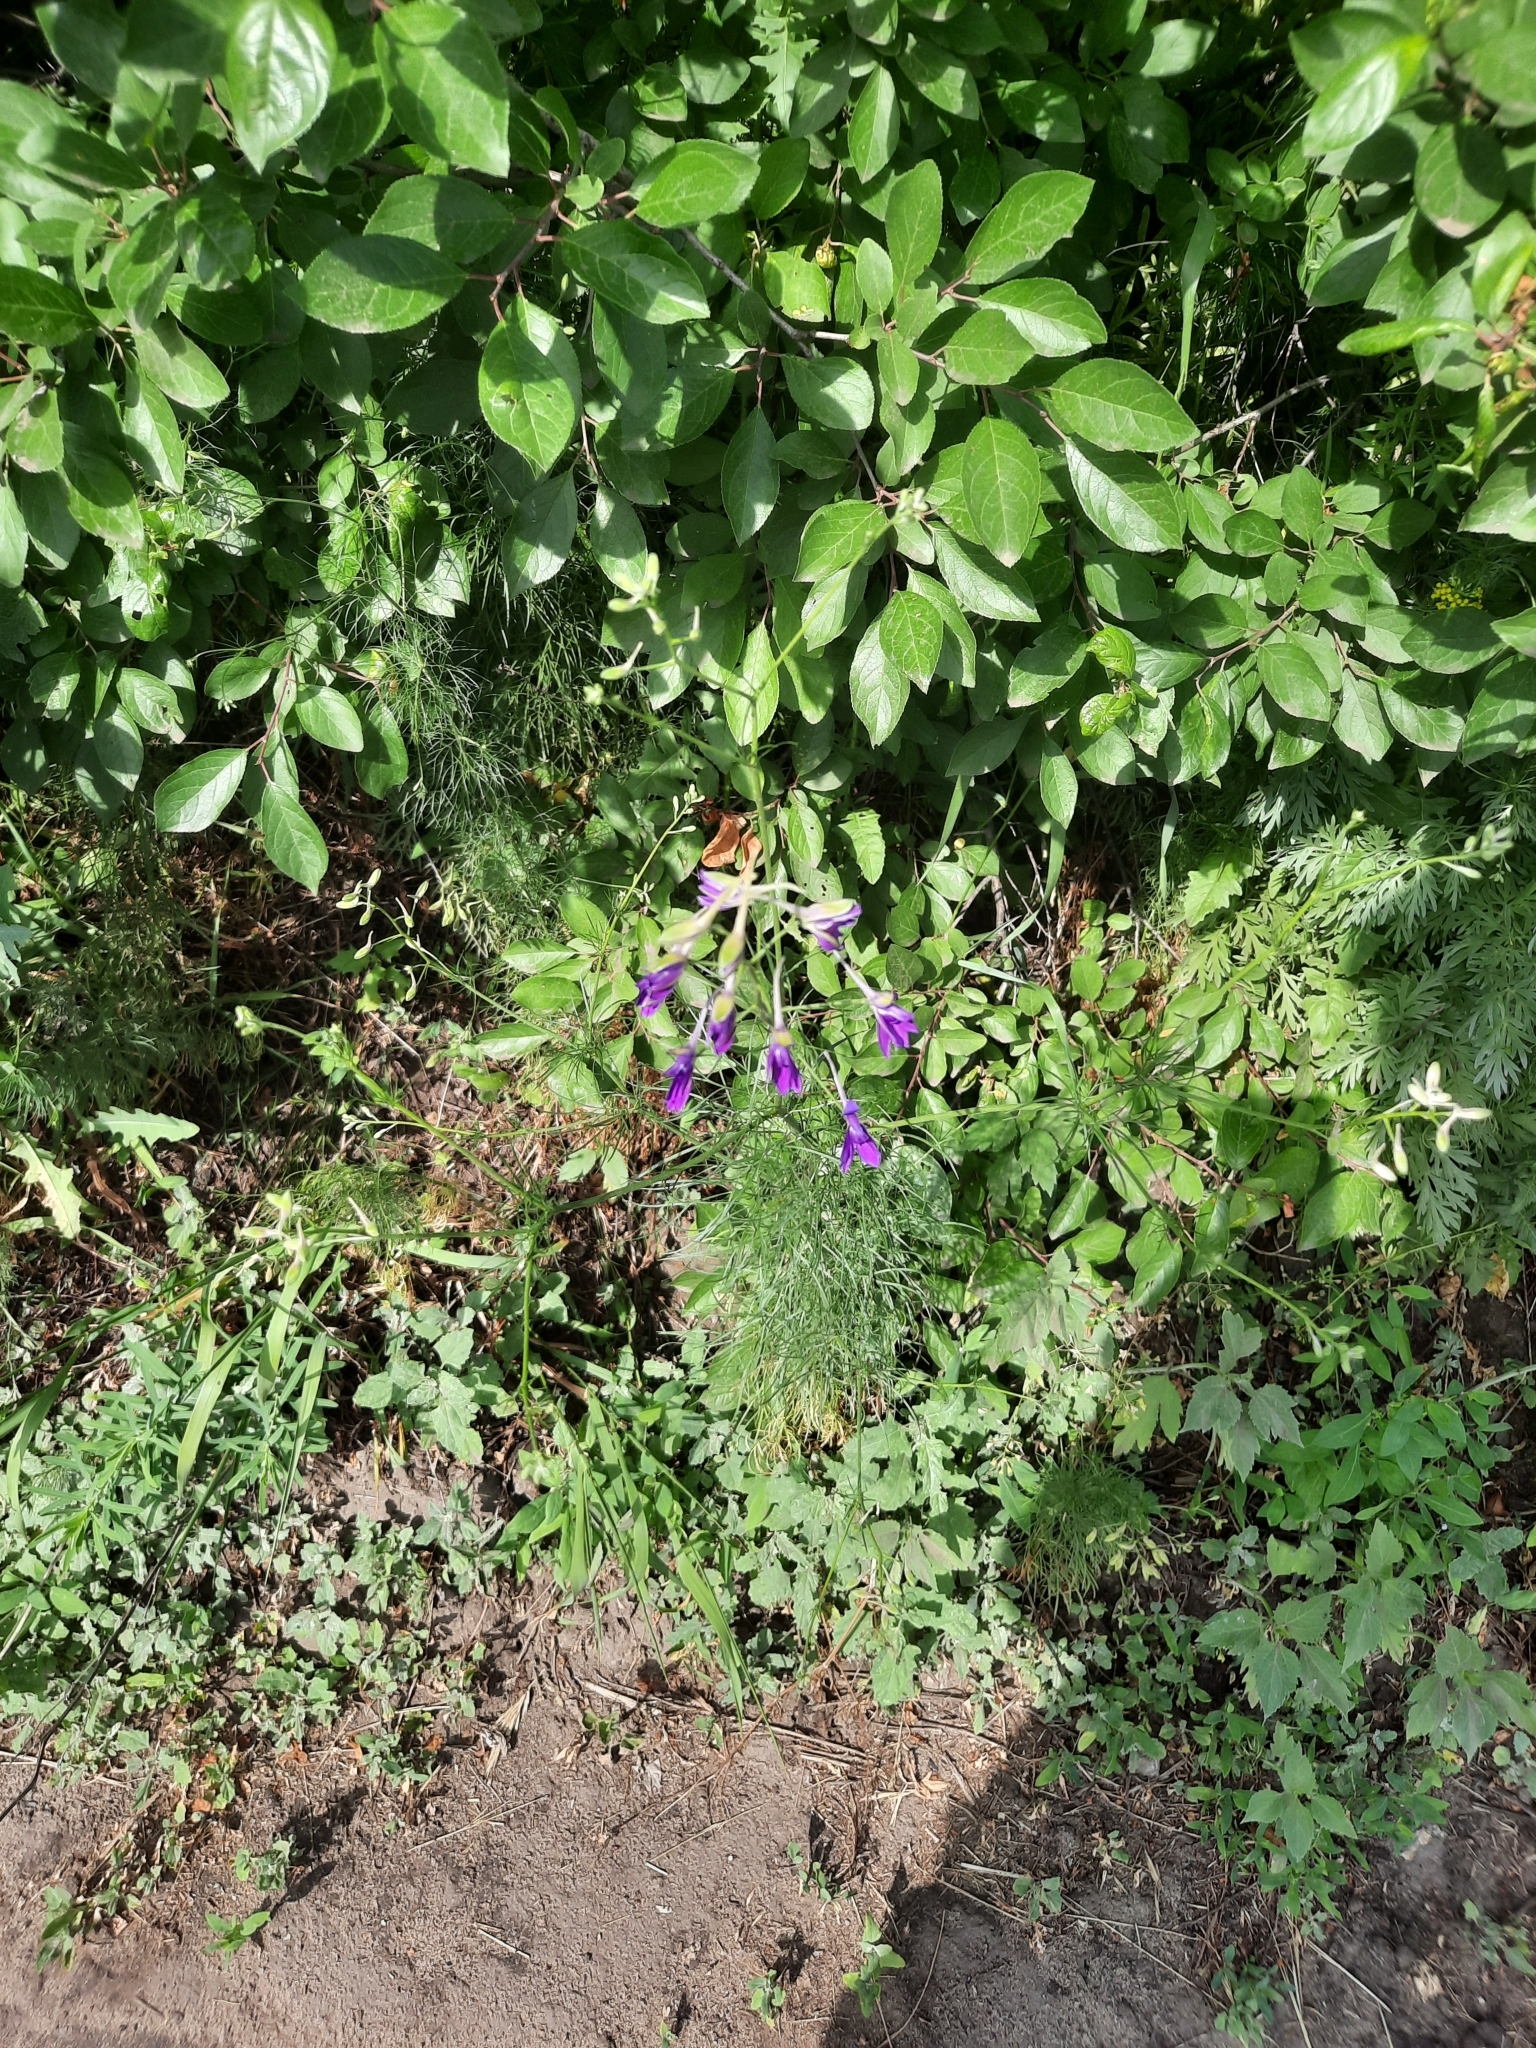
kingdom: Plantae
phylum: Tracheophyta
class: Magnoliopsida
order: Ranunculales
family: Ranunculaceae
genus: Delphinium
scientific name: Delphinium consolida
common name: Branching larkspur
